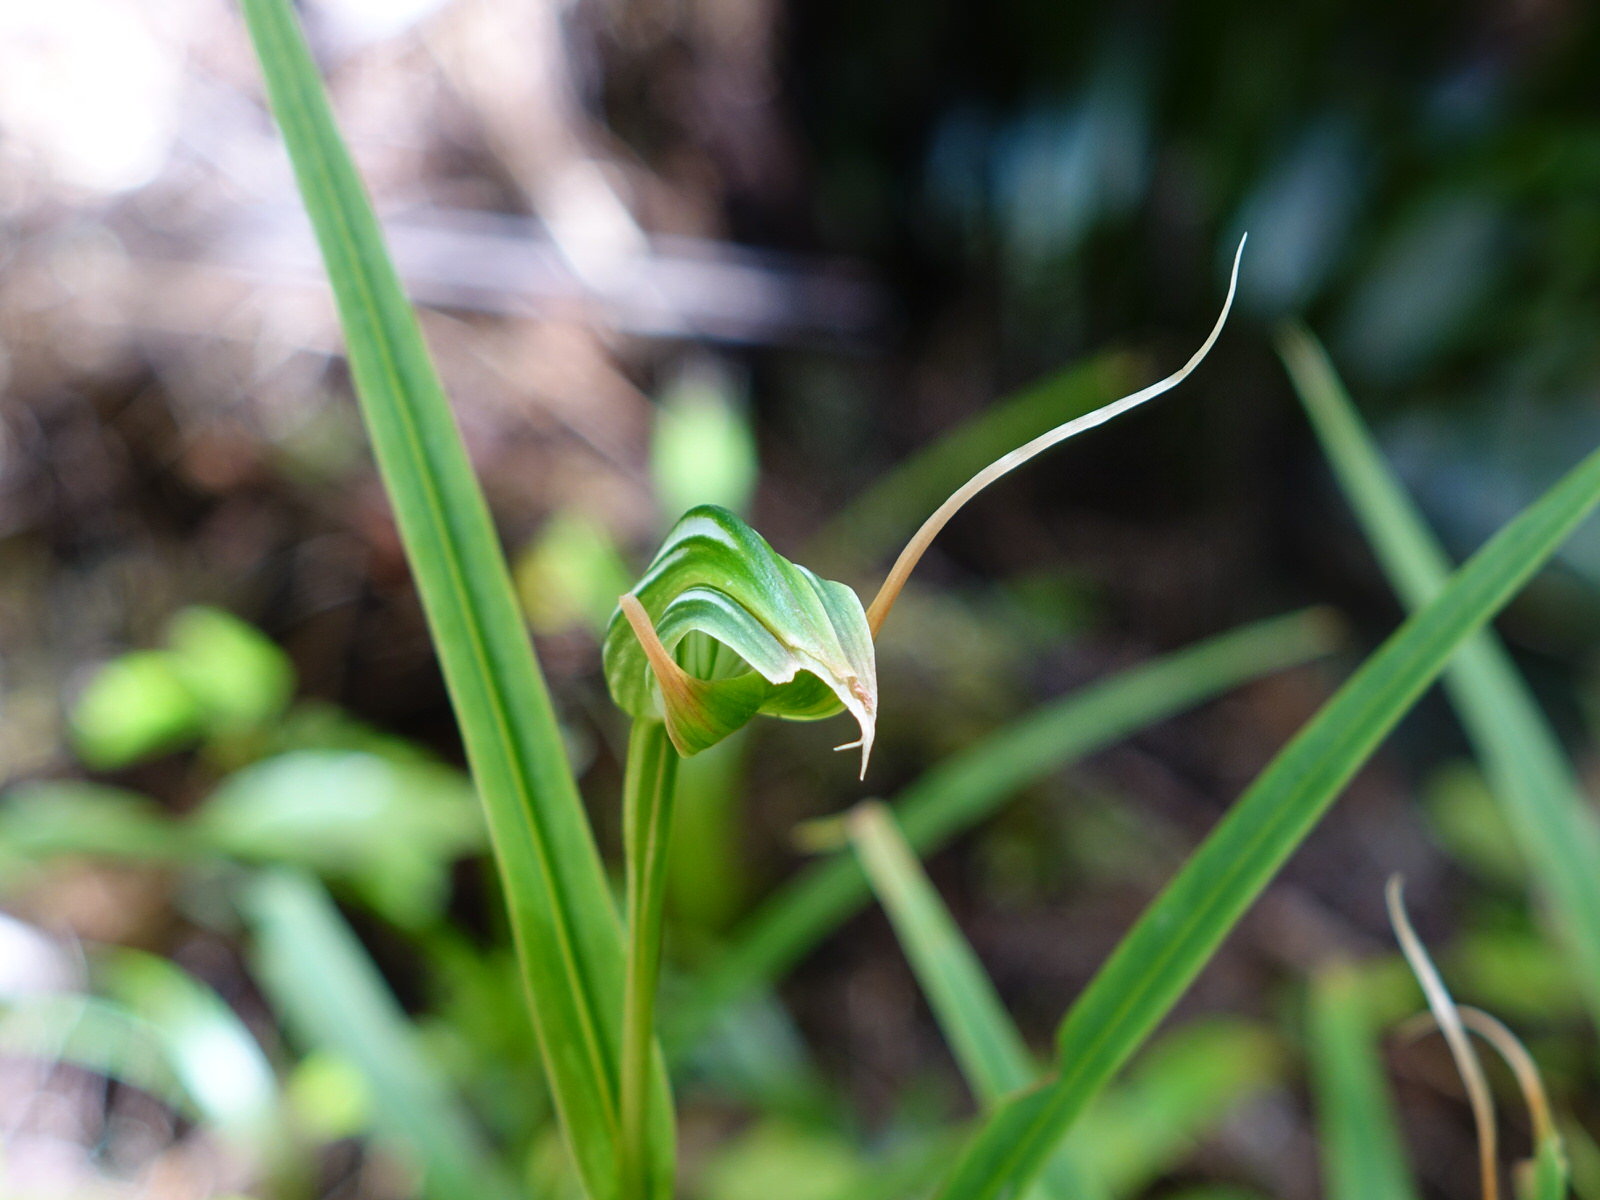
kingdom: Plantae
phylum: Tracheophyta
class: Liliopsida
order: Asparagales
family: Orchidaceae
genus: Pterostylis
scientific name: Pterostylis banksii
